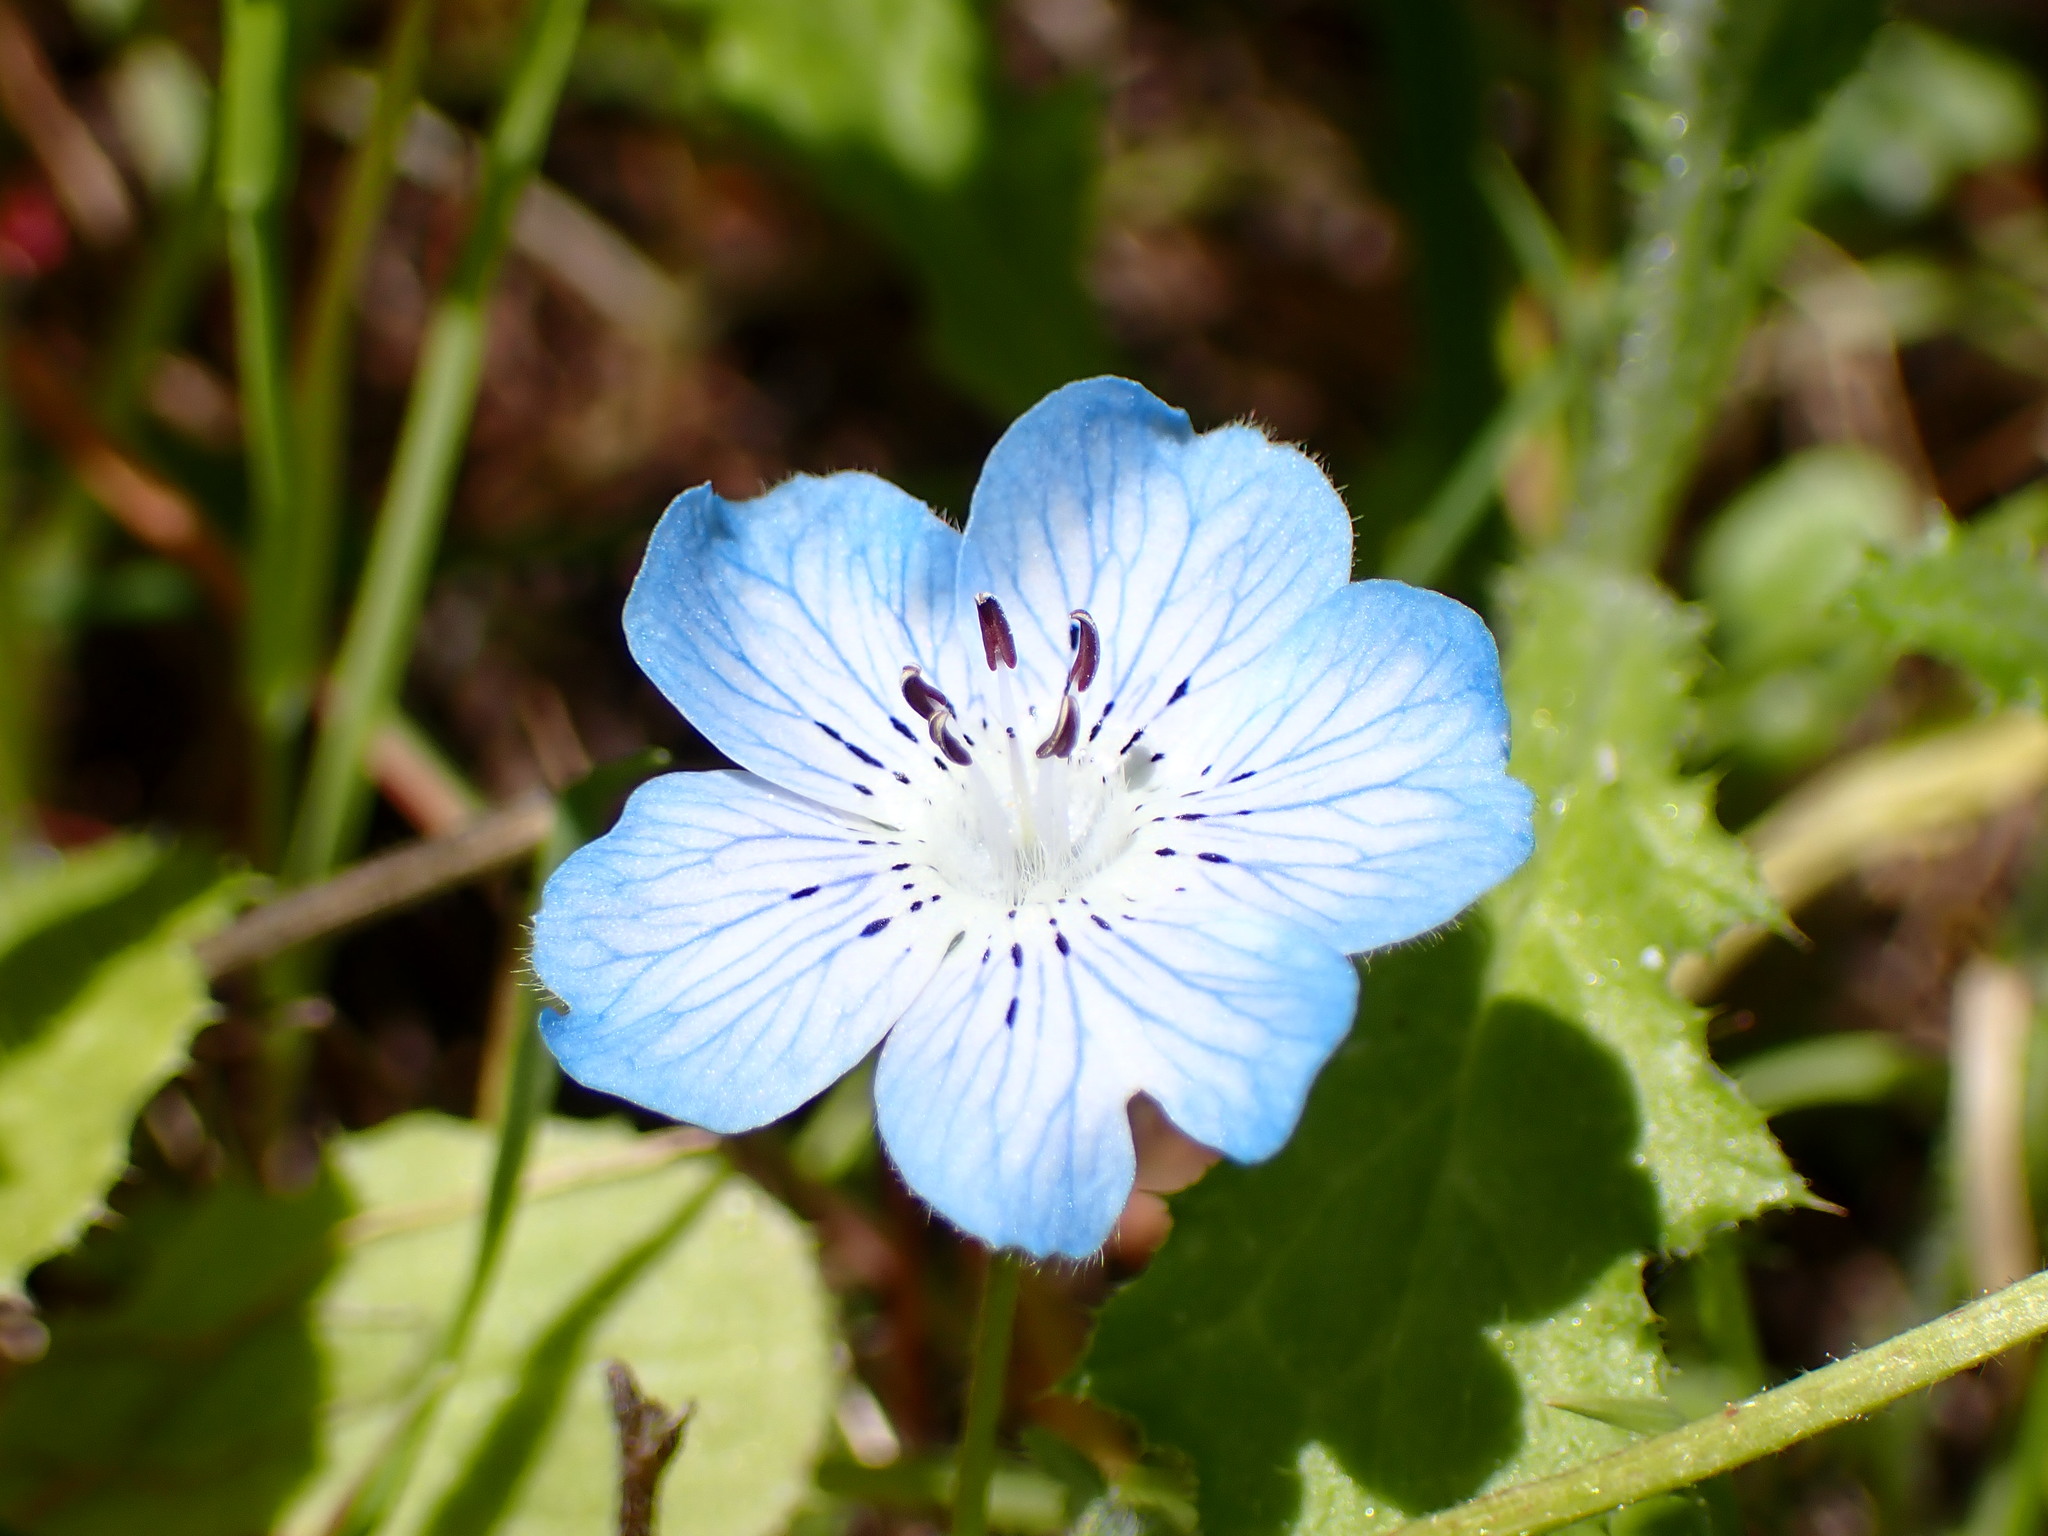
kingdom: Plantae
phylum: Tracheophyta
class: Magnoliopsida
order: Boraginales
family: Hydrophyllaceae
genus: Nemophila
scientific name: Nemophila menziesii
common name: Baby's-blue-eyes
